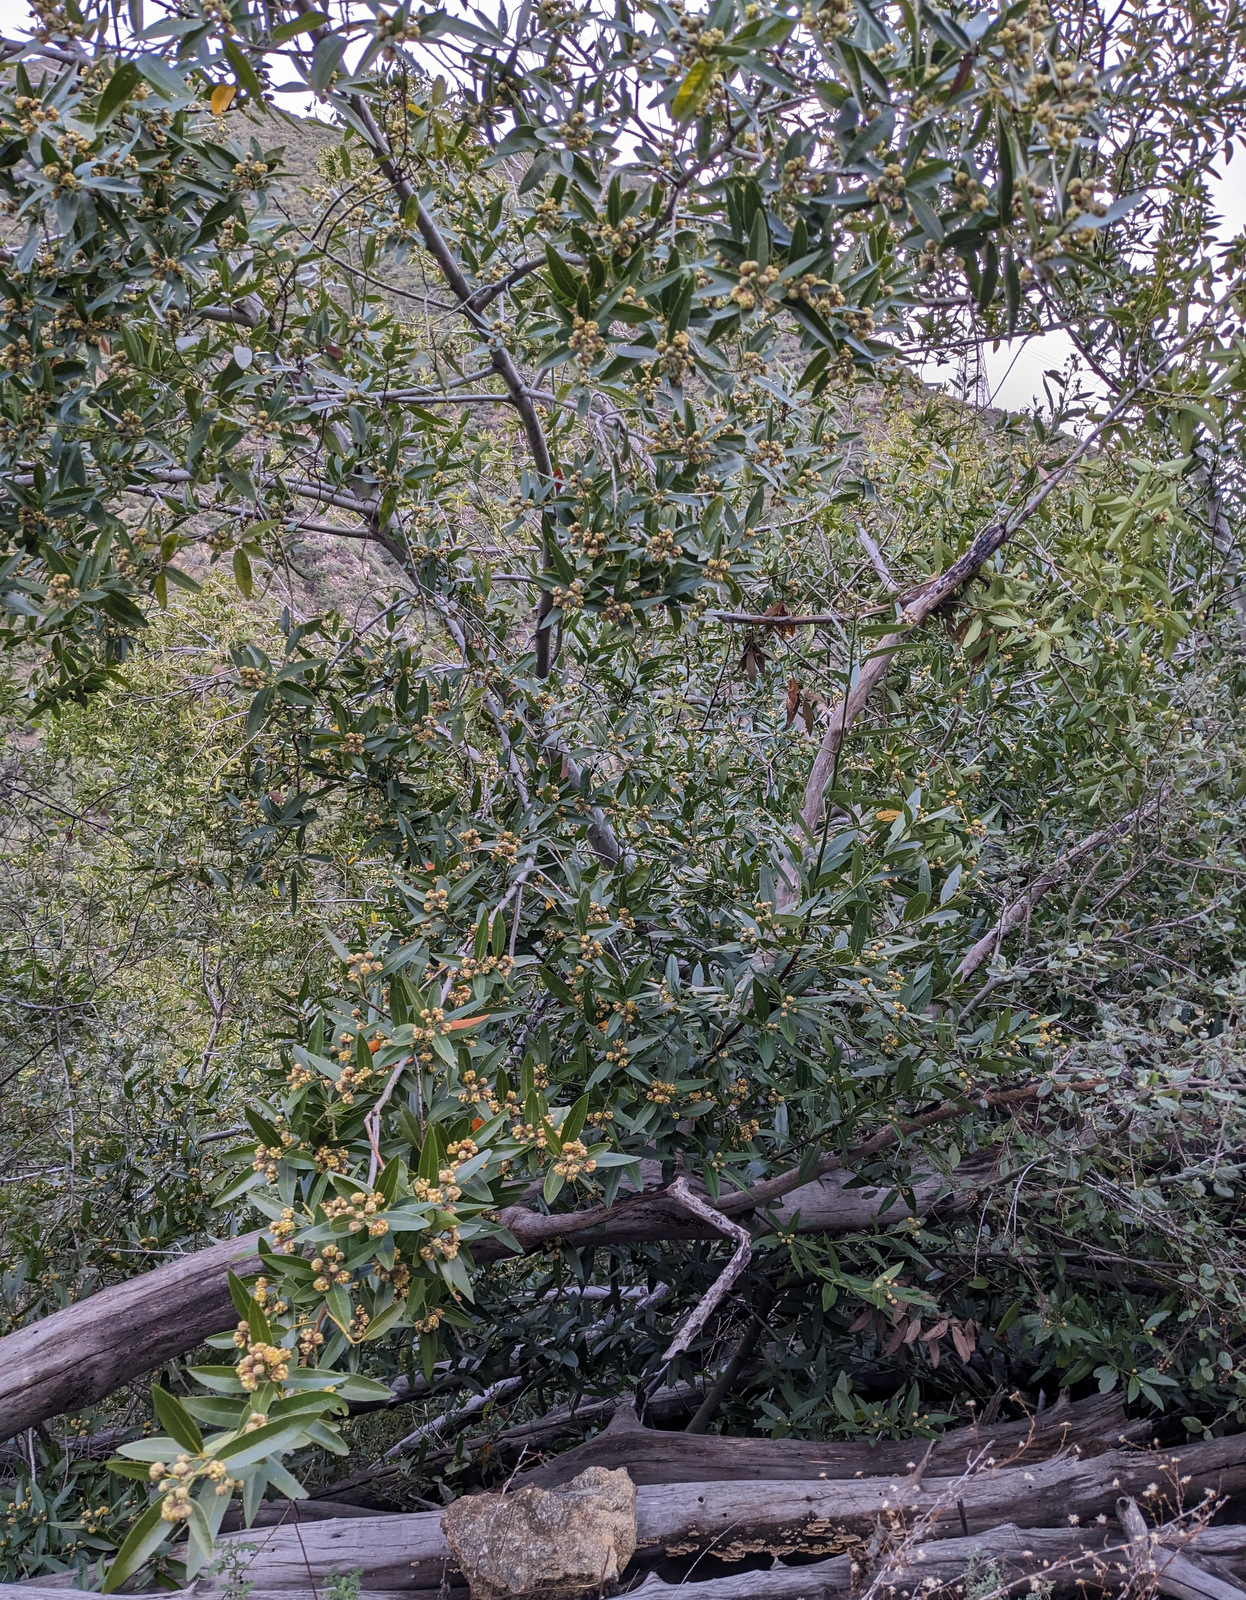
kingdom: Plantae
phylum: Tracheophyta
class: Magnoliopsida
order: Laurales
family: Lauraceae
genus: Umbellularia
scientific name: Umbellularia californica
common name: California bay
